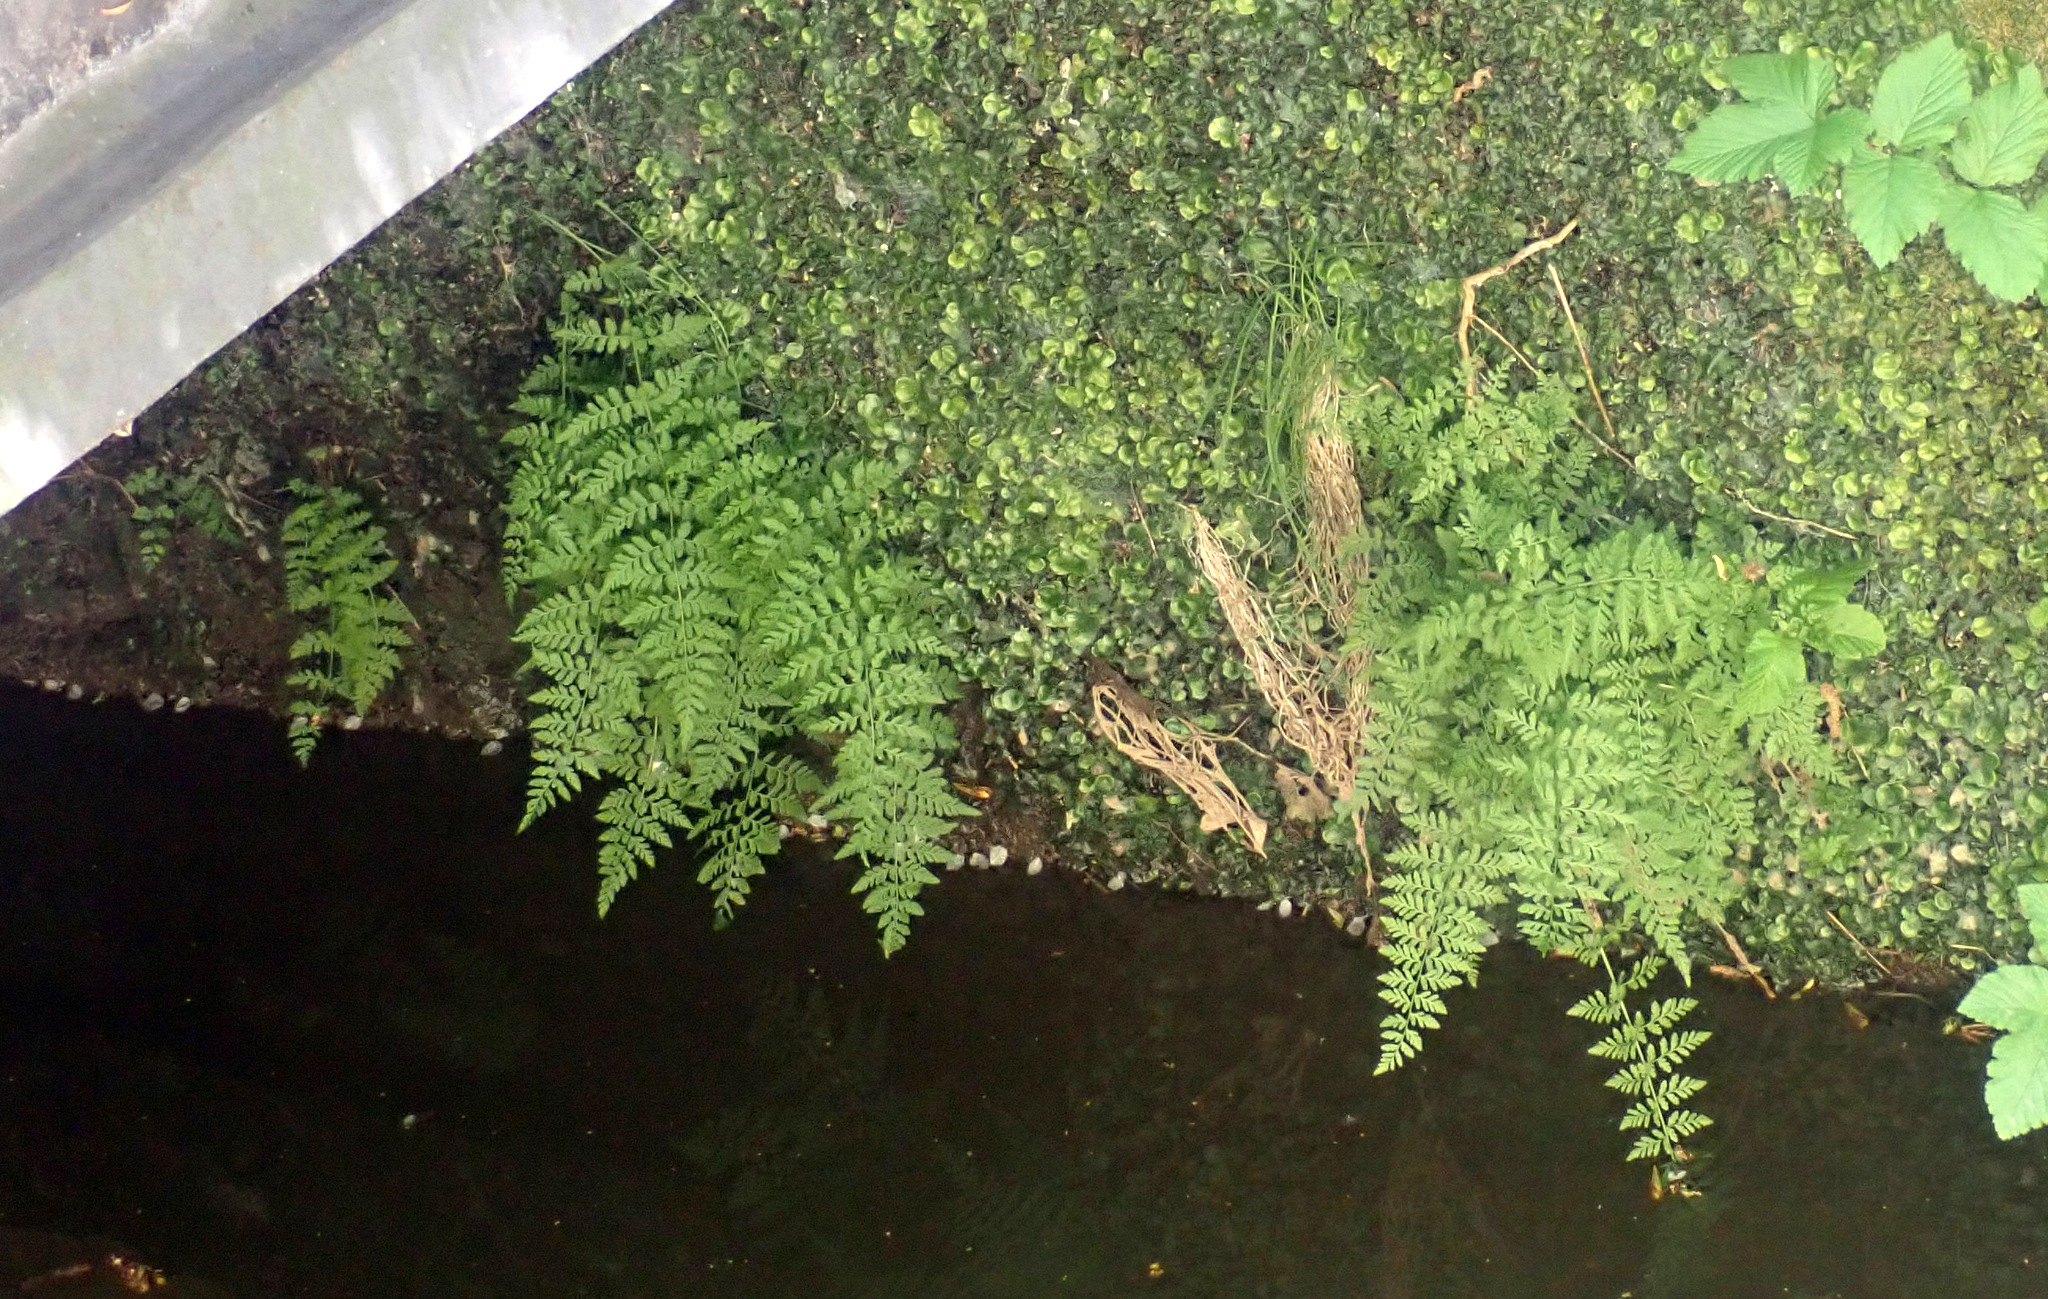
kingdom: Plantae
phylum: Tracheophyta
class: Polypodiopsida
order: Polypodiales
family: Cystopteridaceae
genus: Cystopteris
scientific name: Cystopteris fragilis
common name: Brittle bladder fern
